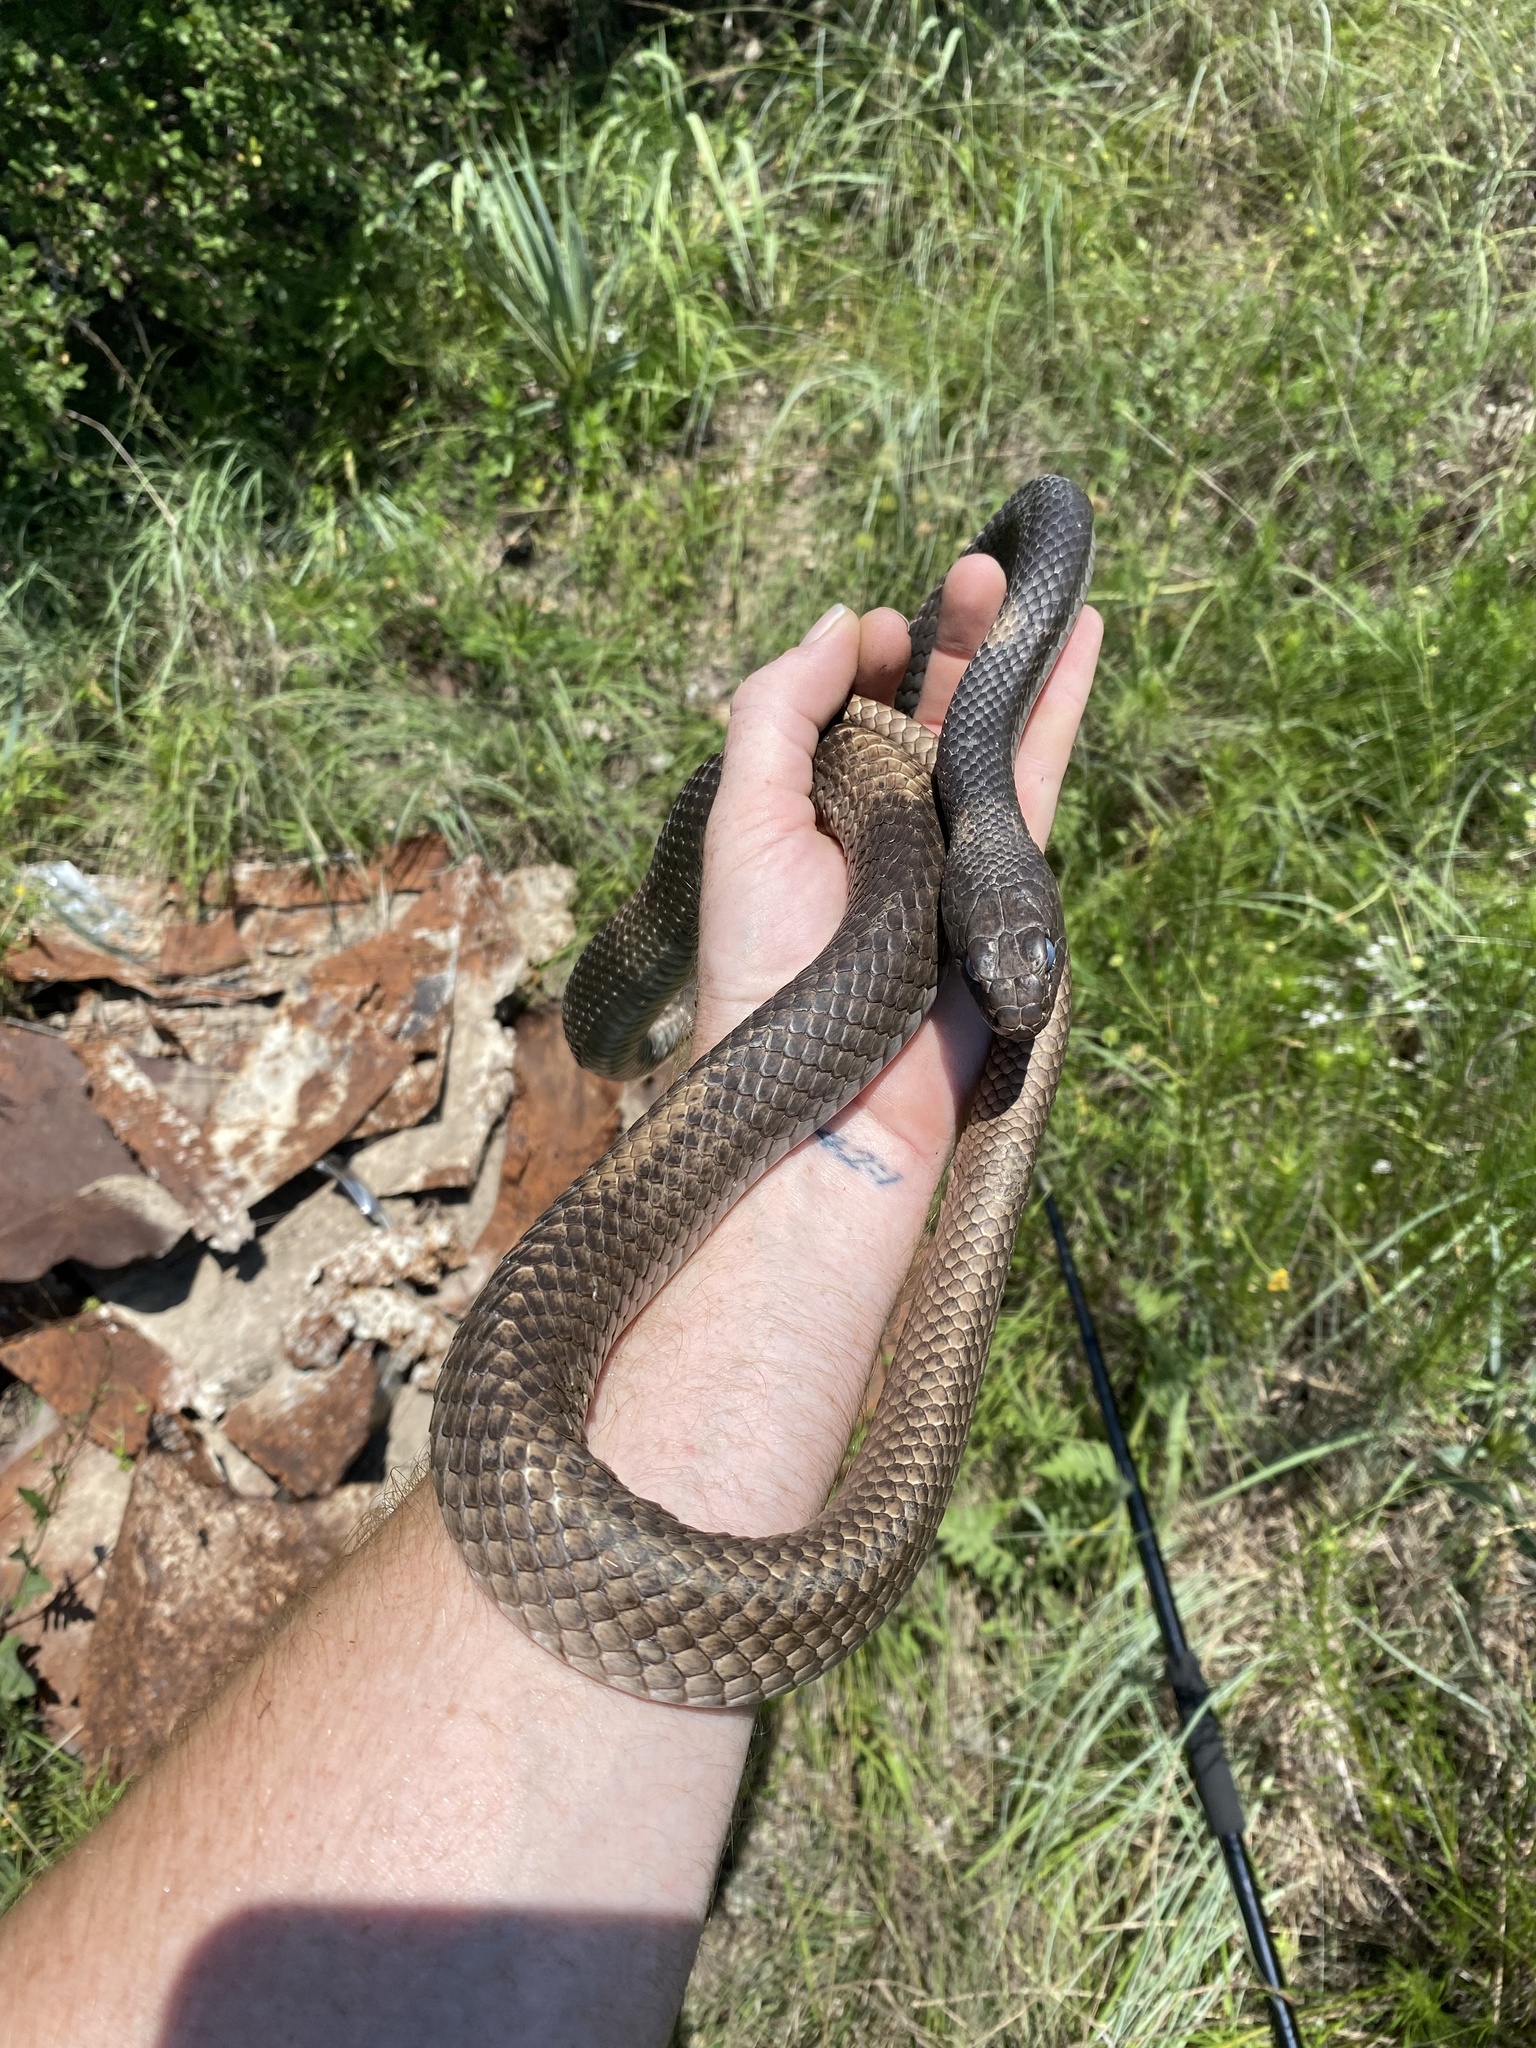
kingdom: Animalia
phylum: Chordata
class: Squamata
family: Colubridae
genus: Masticophis
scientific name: Masticophis flagellum
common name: Coachwhip
